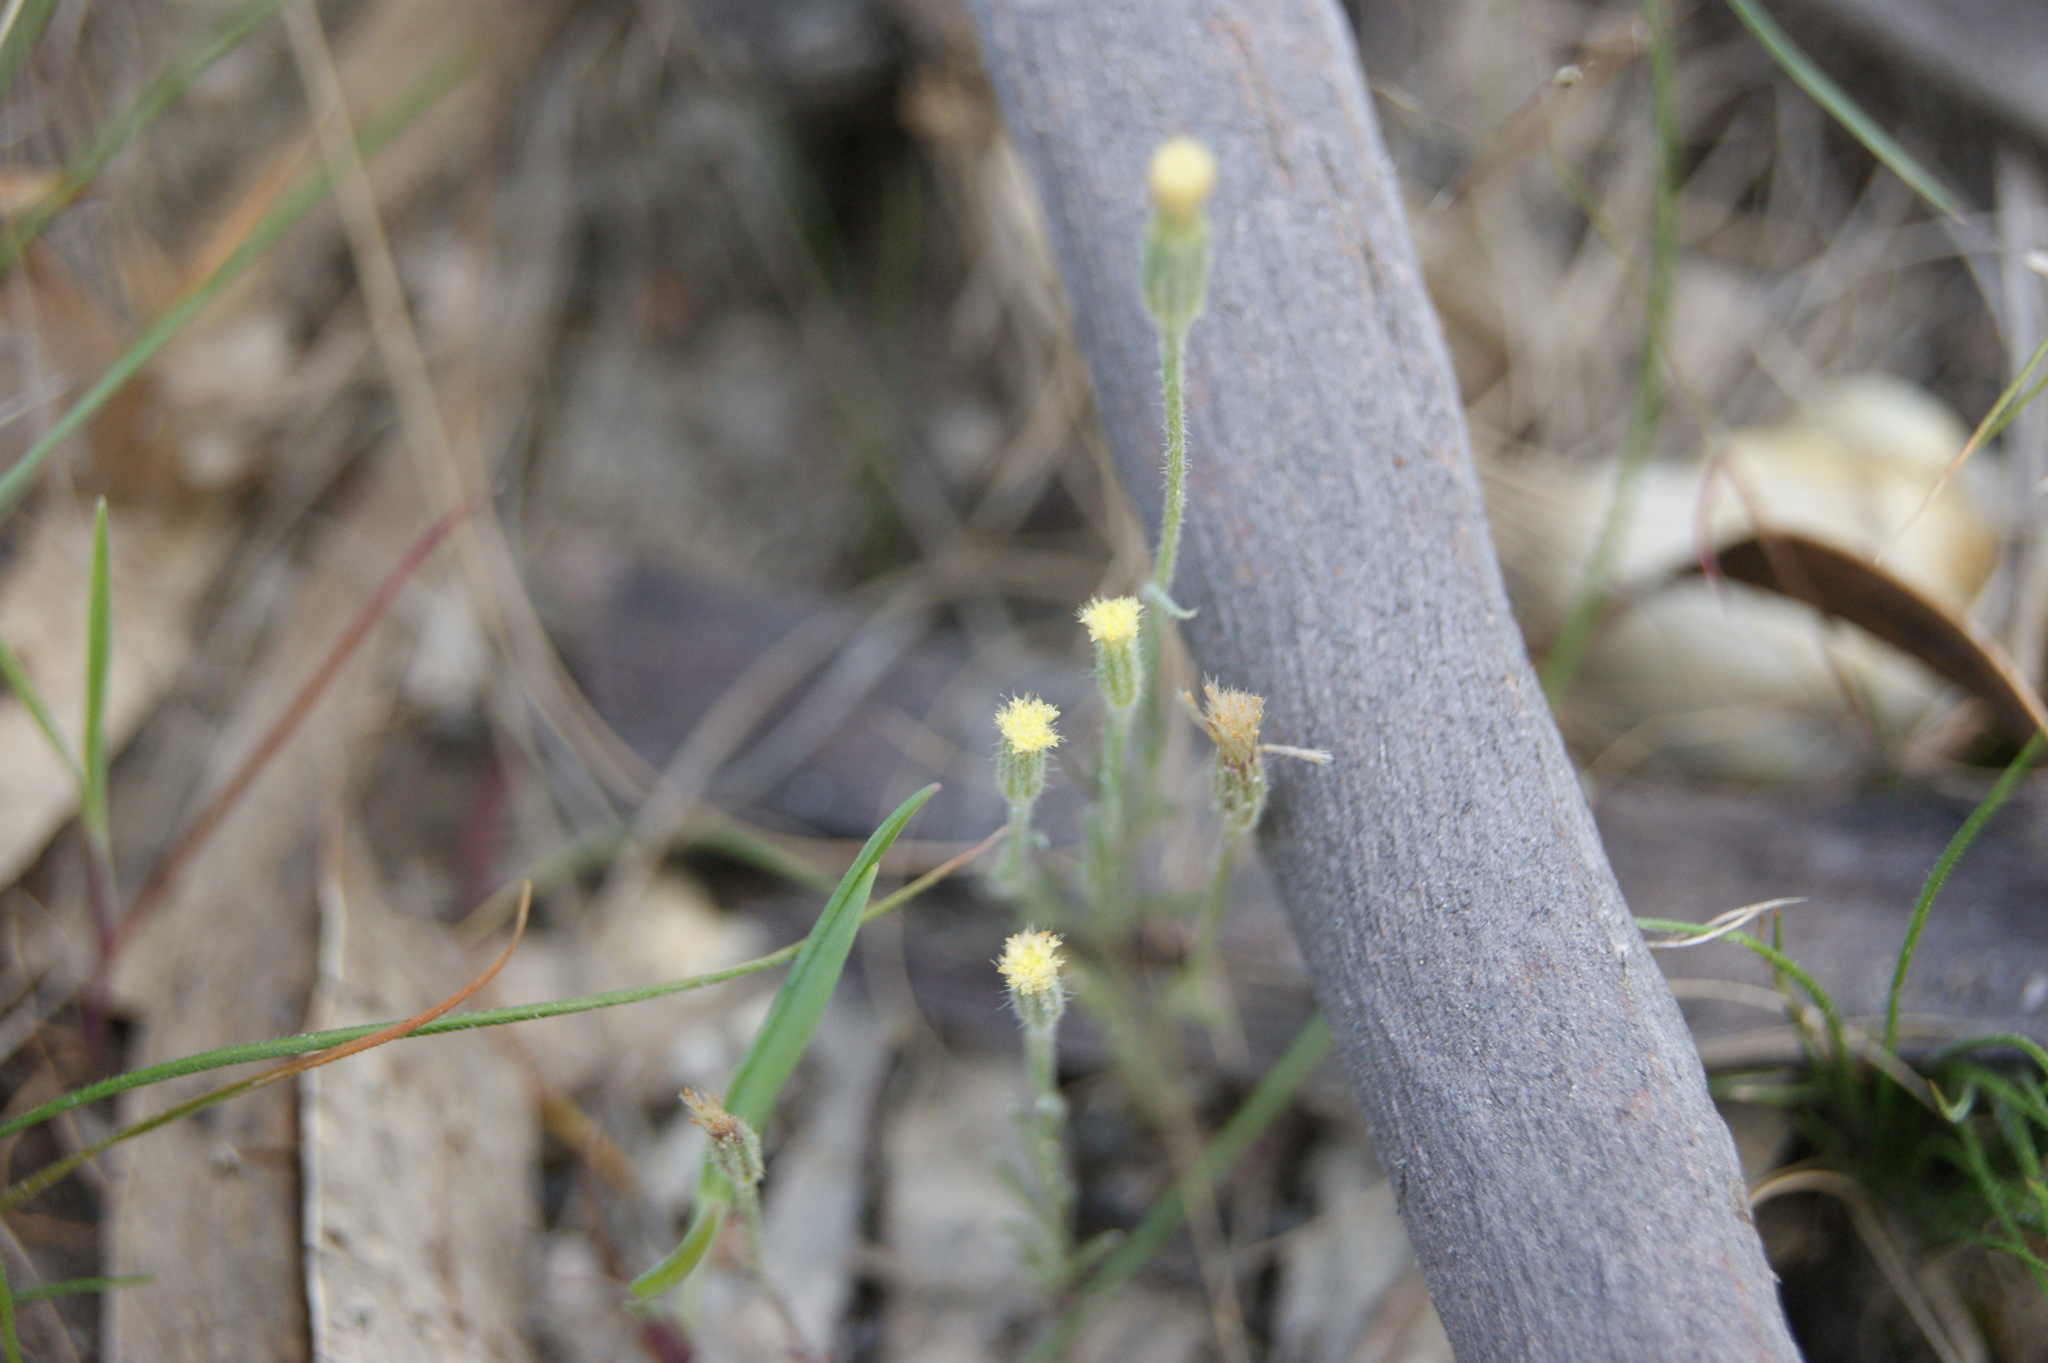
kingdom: Plantae
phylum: Tracheophyta
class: Magnoliopsida
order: Asterales
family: Asteraceae
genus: Millotia
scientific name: Millotia tenuifolia
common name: Soft millotia
